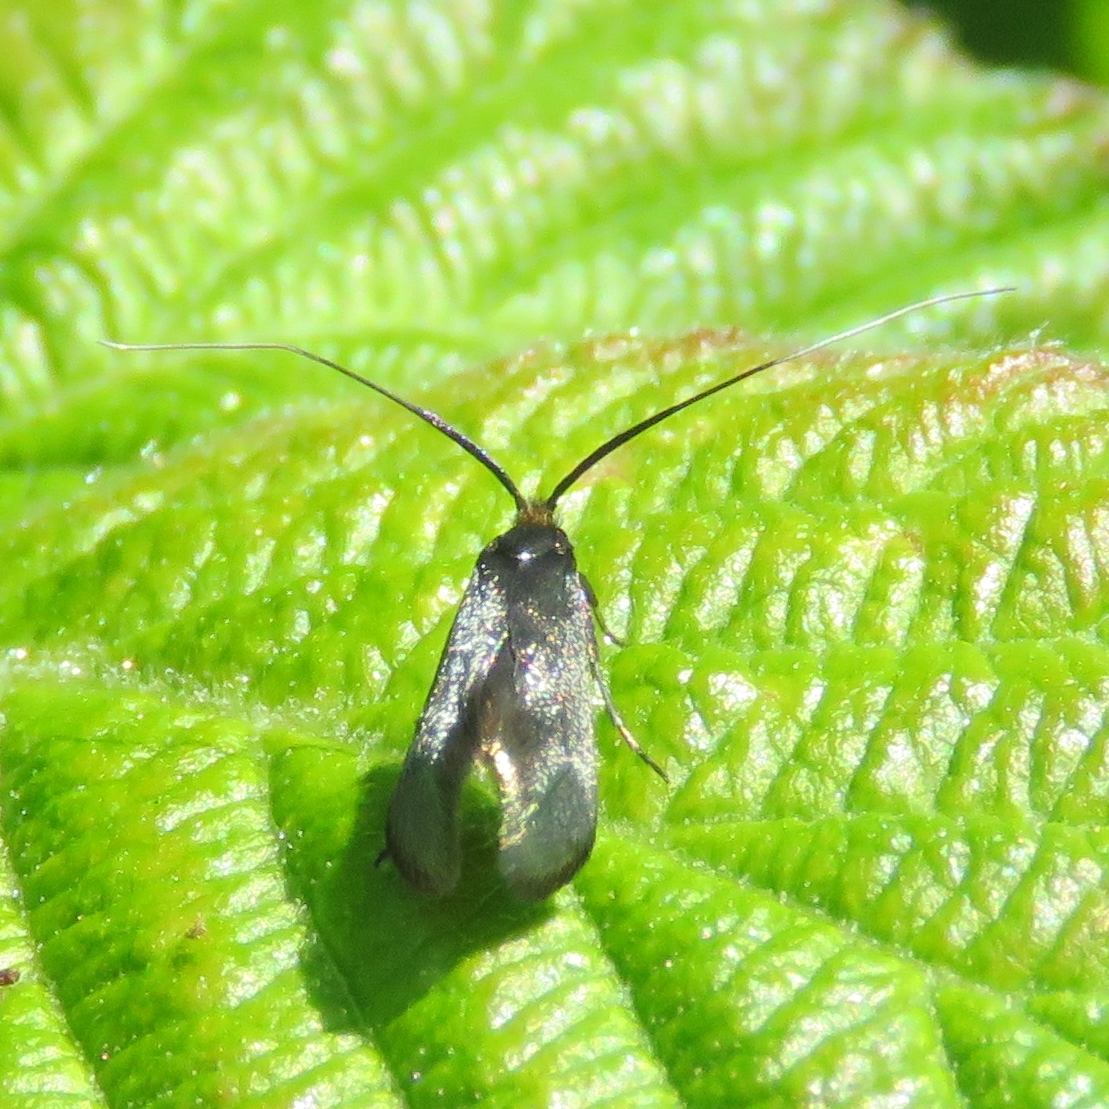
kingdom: Animalia
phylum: Arthropoda
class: Insecta
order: Lepidoptera
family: Adelidae
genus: Adela
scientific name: Adela viridella
